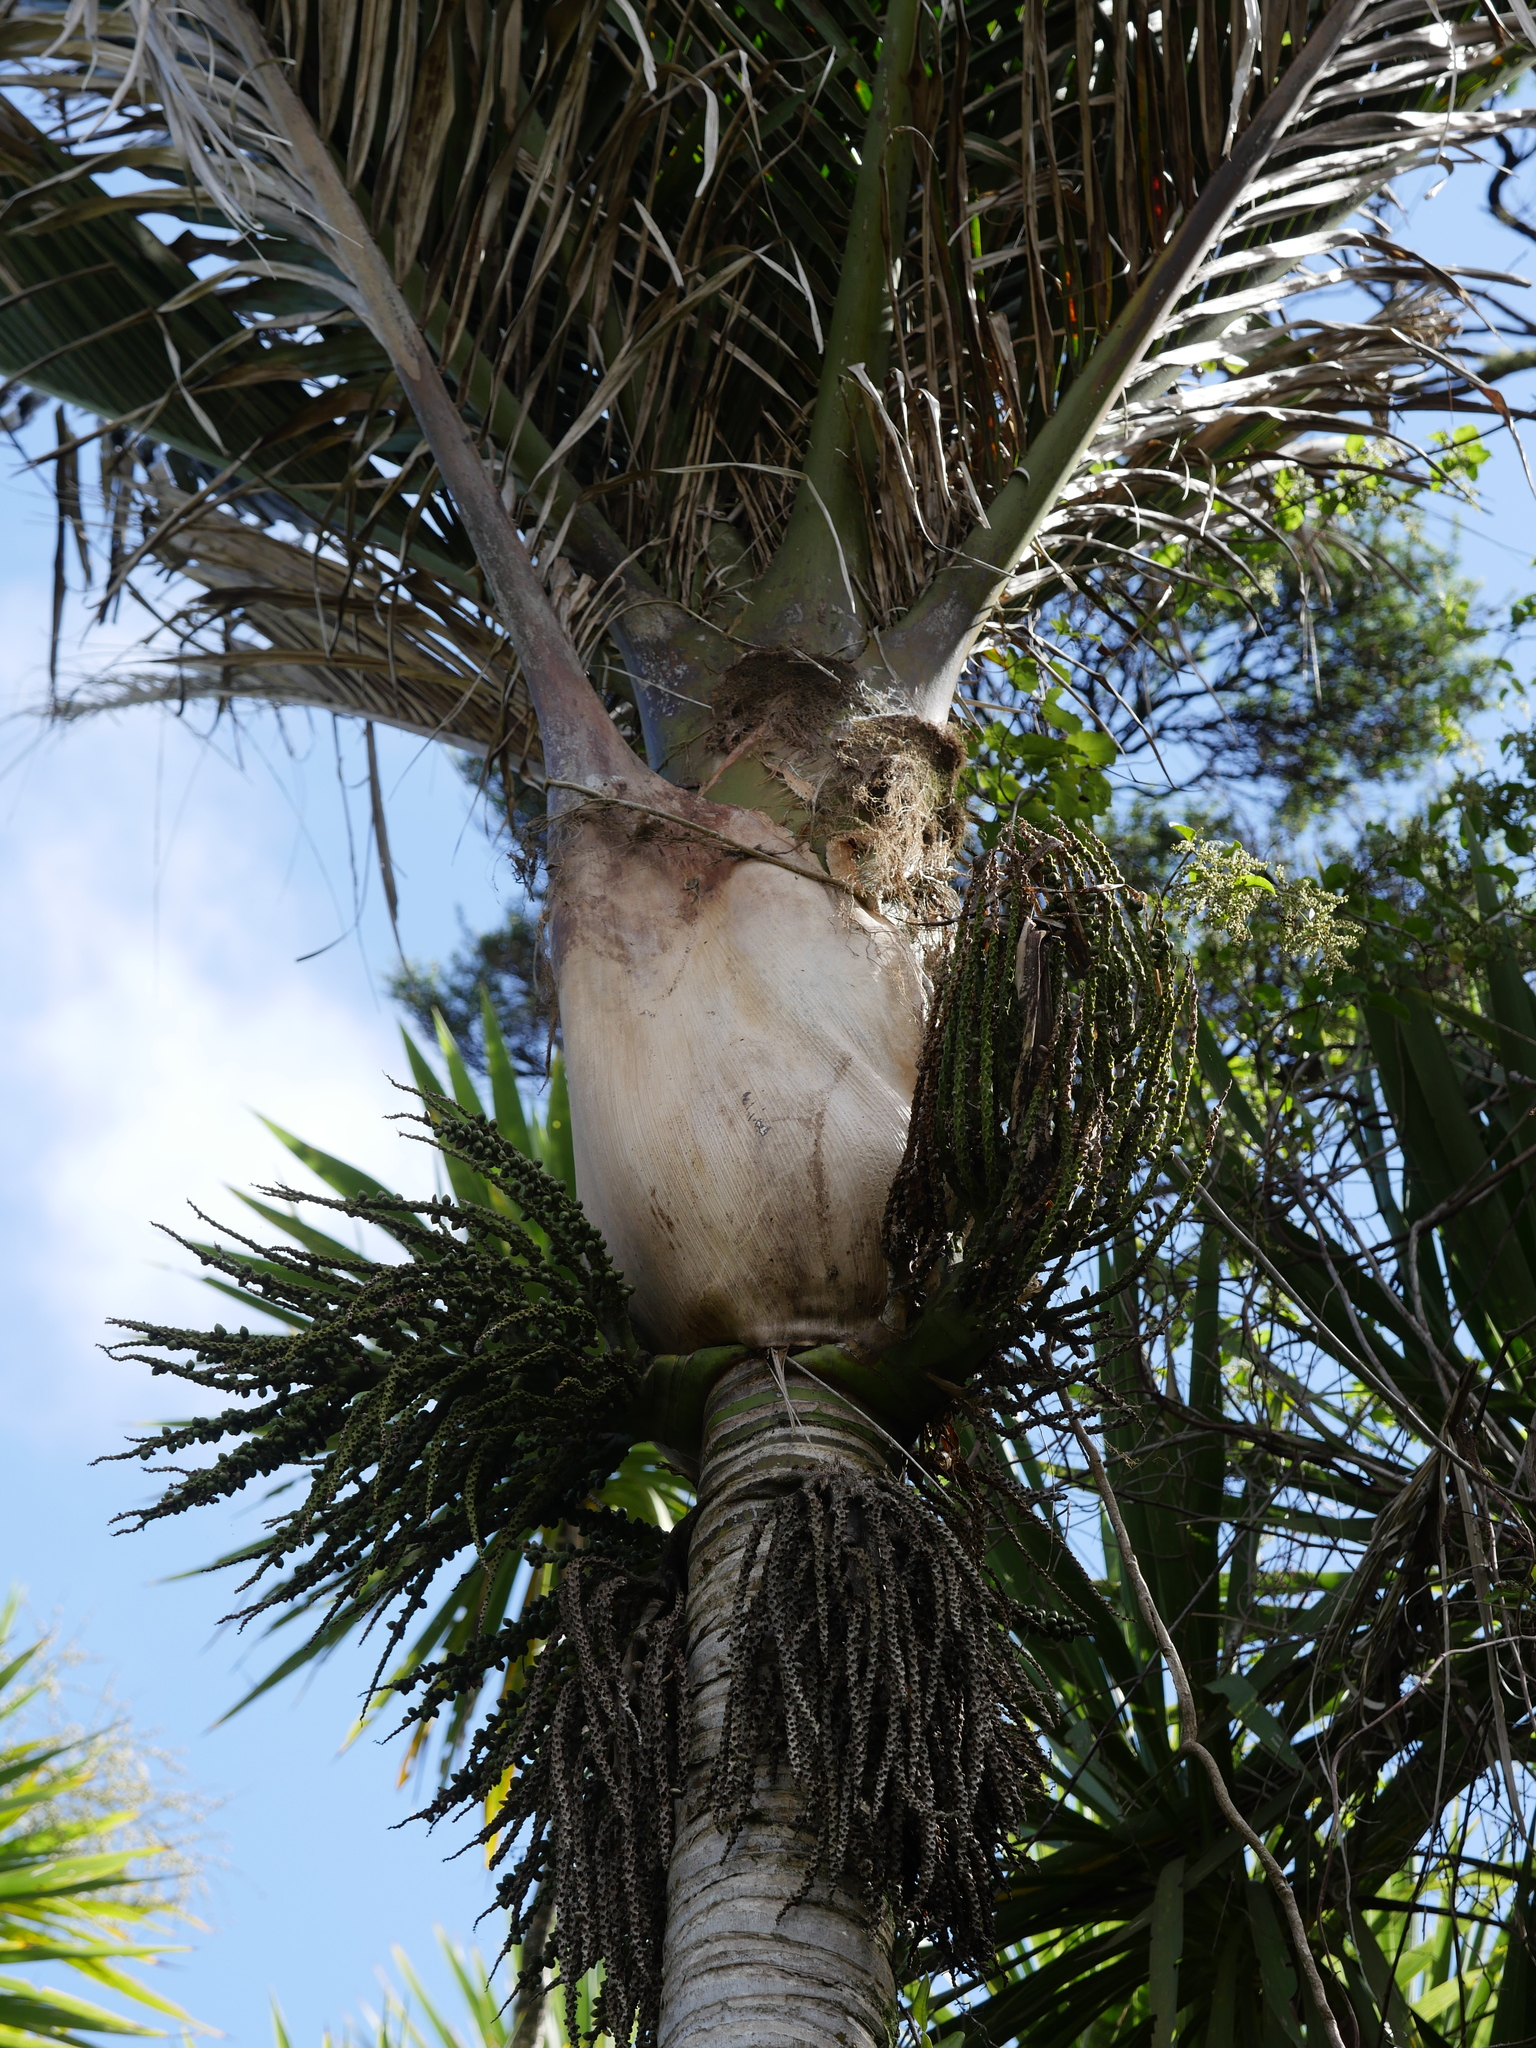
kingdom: Plantae
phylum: Tracheophyta
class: Liliopsida
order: Arecales
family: Arecaceae
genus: Rhopalostylis
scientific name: Rhopalostylis sapida
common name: Feather-duster palm
